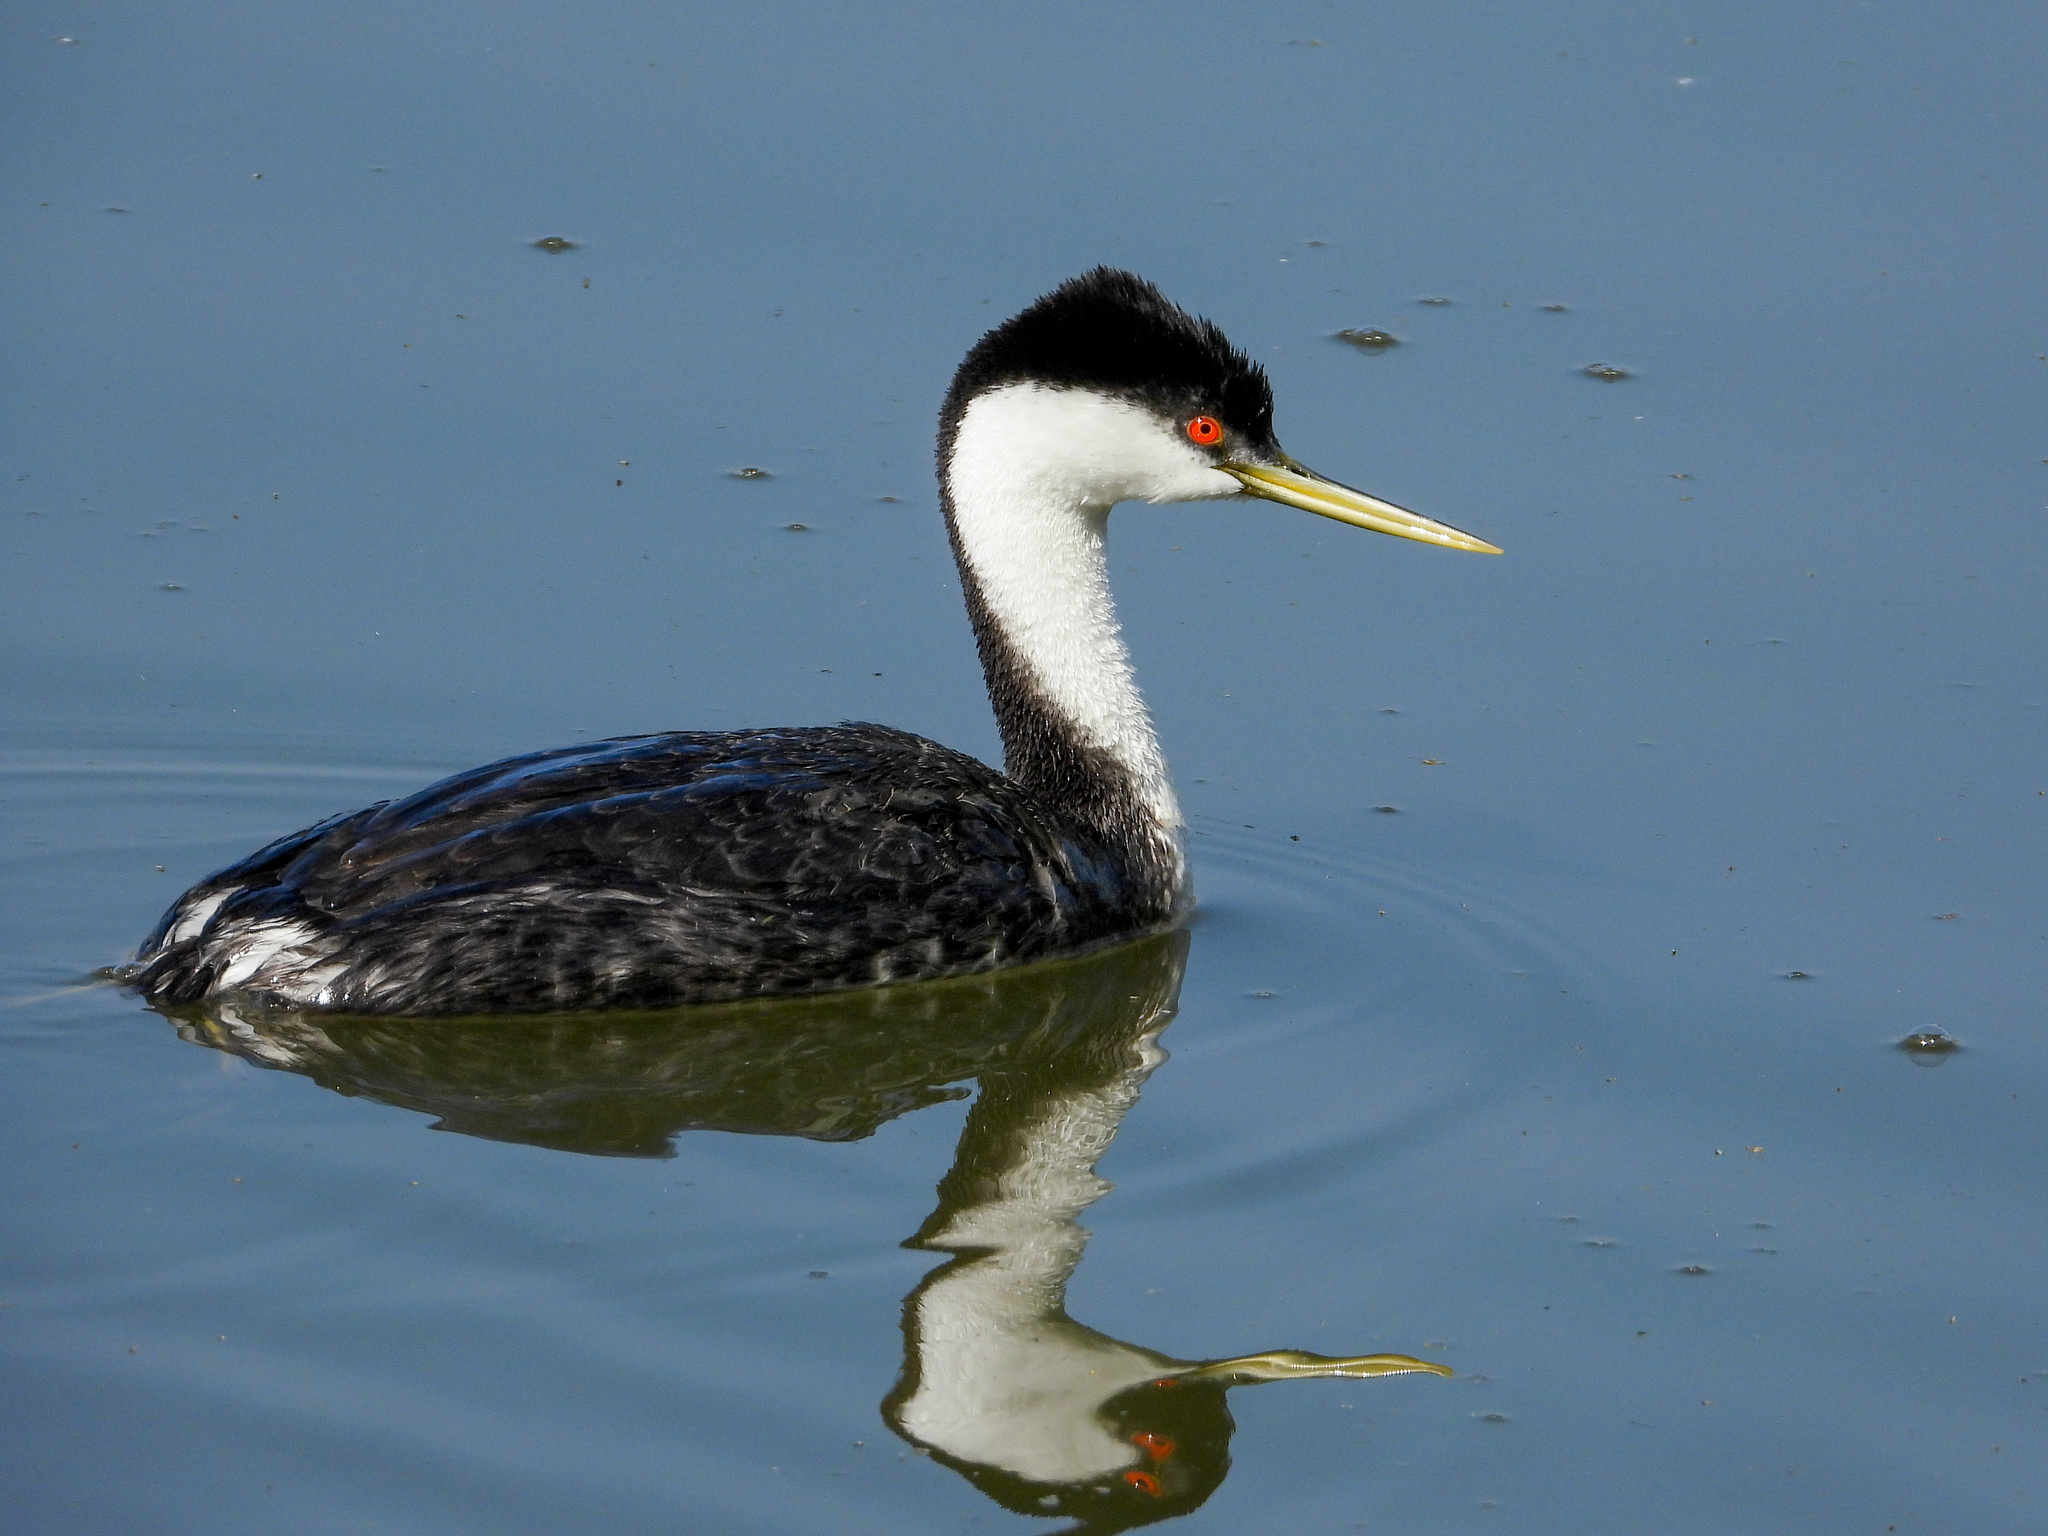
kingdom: Animalia
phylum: Chordata
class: Aves
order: Podicipediformes
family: Podicipedidae
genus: Aechmophorus
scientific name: Aechmophorus occidentalis
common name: Western grebe
